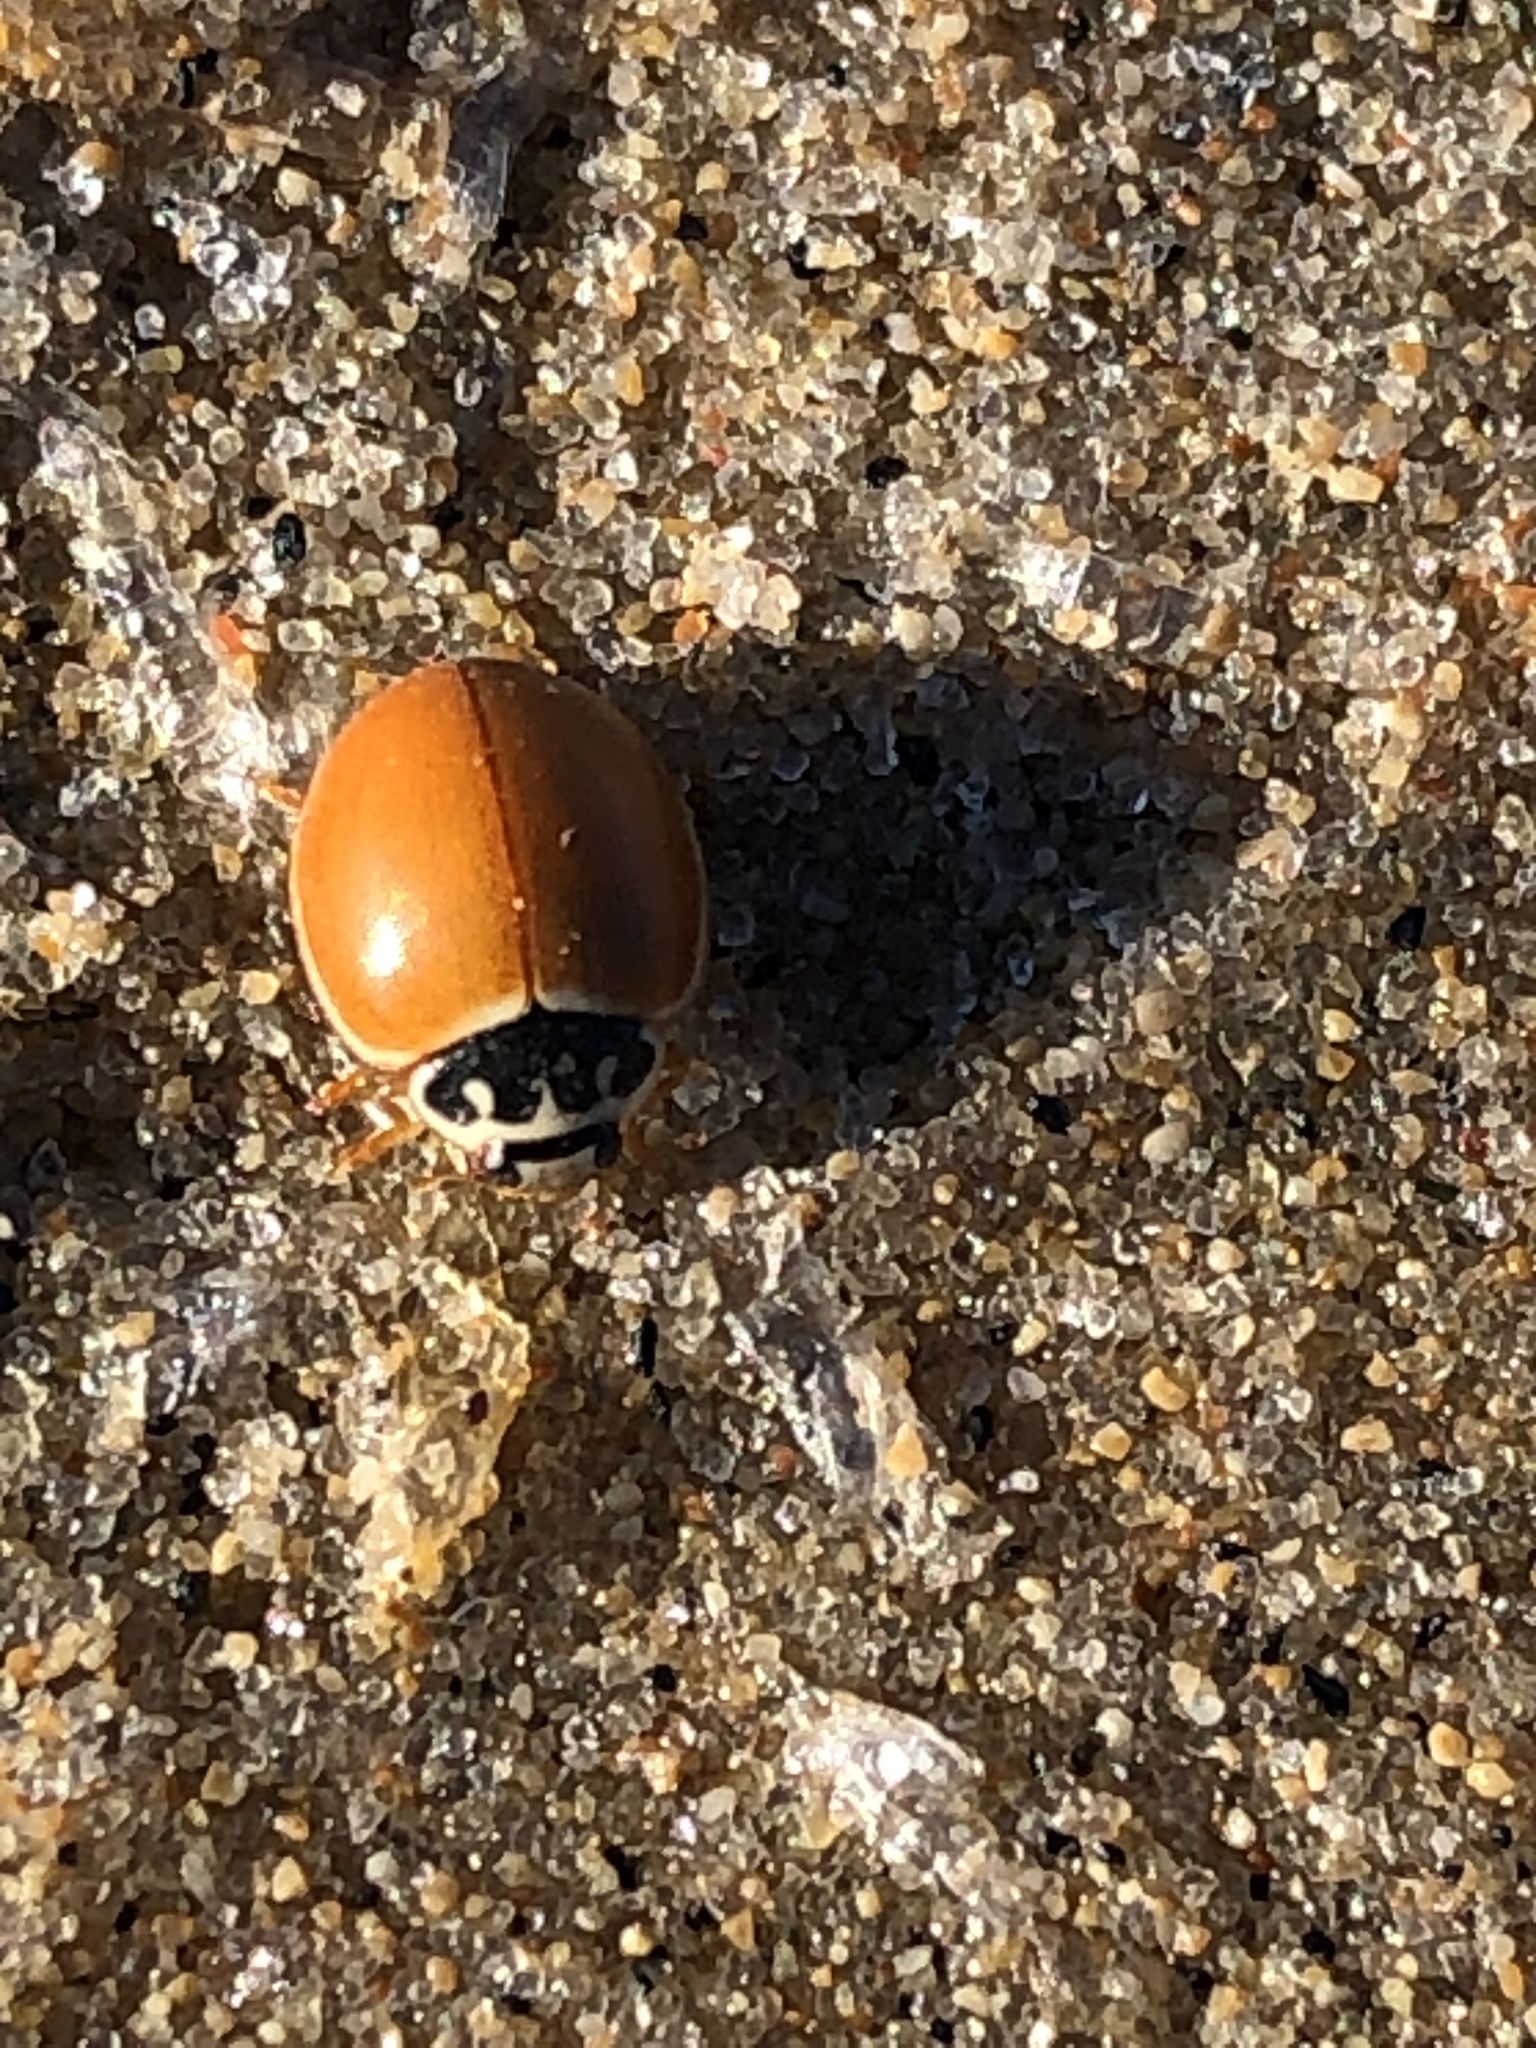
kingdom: Animalia
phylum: Arthropoda
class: Insecta
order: Coleoptera
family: Coccinellidae
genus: Cycloneda
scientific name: Cycloneda munda
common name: Polished lady beetle
